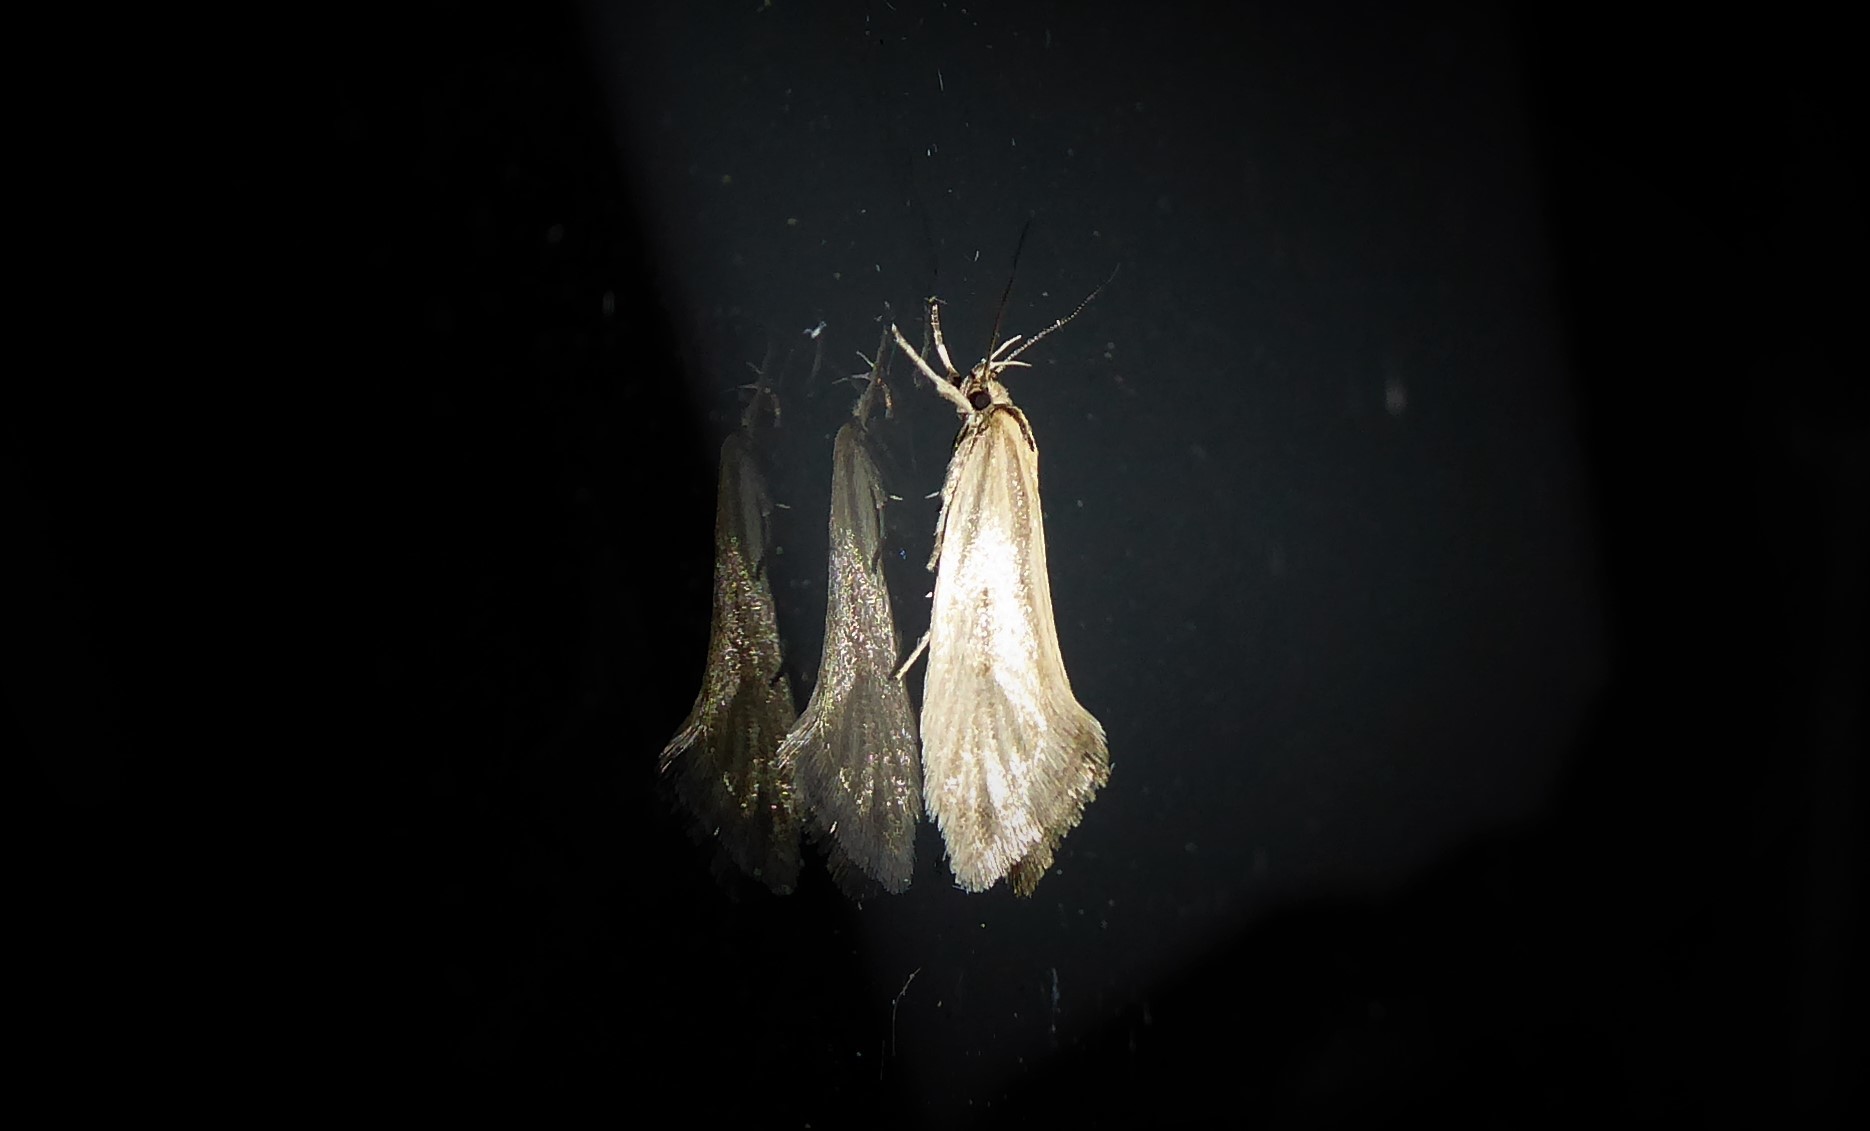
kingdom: Animalia
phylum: Arthropoda
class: Insecta
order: Lepidoptera
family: Oecophoridae
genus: Tingena
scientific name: Tingena chloradelpha
